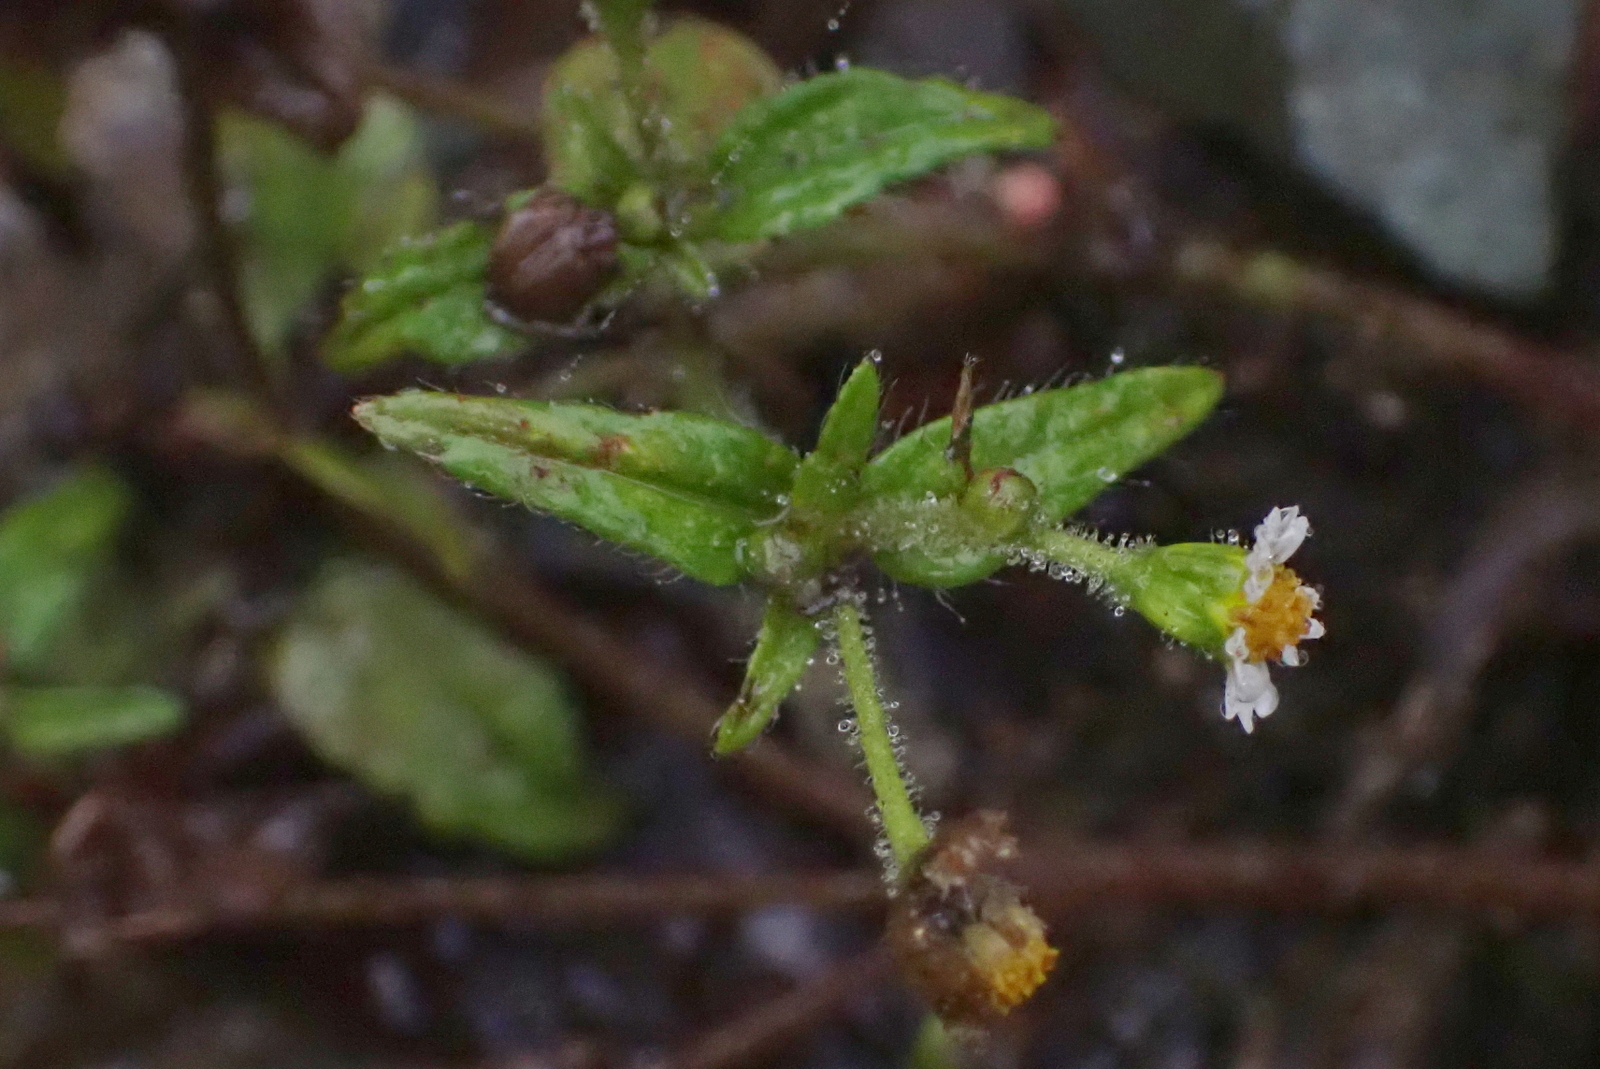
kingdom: Plantae
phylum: Tracheophyta
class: Magnoliopsida
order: Asterales
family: Asteraceae
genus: Galinsoga
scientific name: Galinsoga quadriradiata
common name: Shaggy soldier
